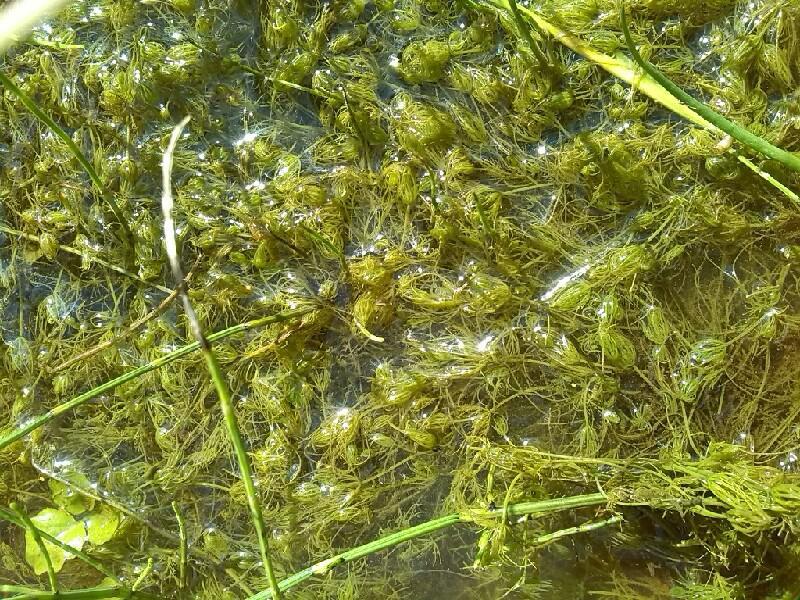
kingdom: Plantae
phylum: Charophyta
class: Charophyceae
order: Charales
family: Characeae
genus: Chara
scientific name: Chara vulgaris
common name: Common stonewort
